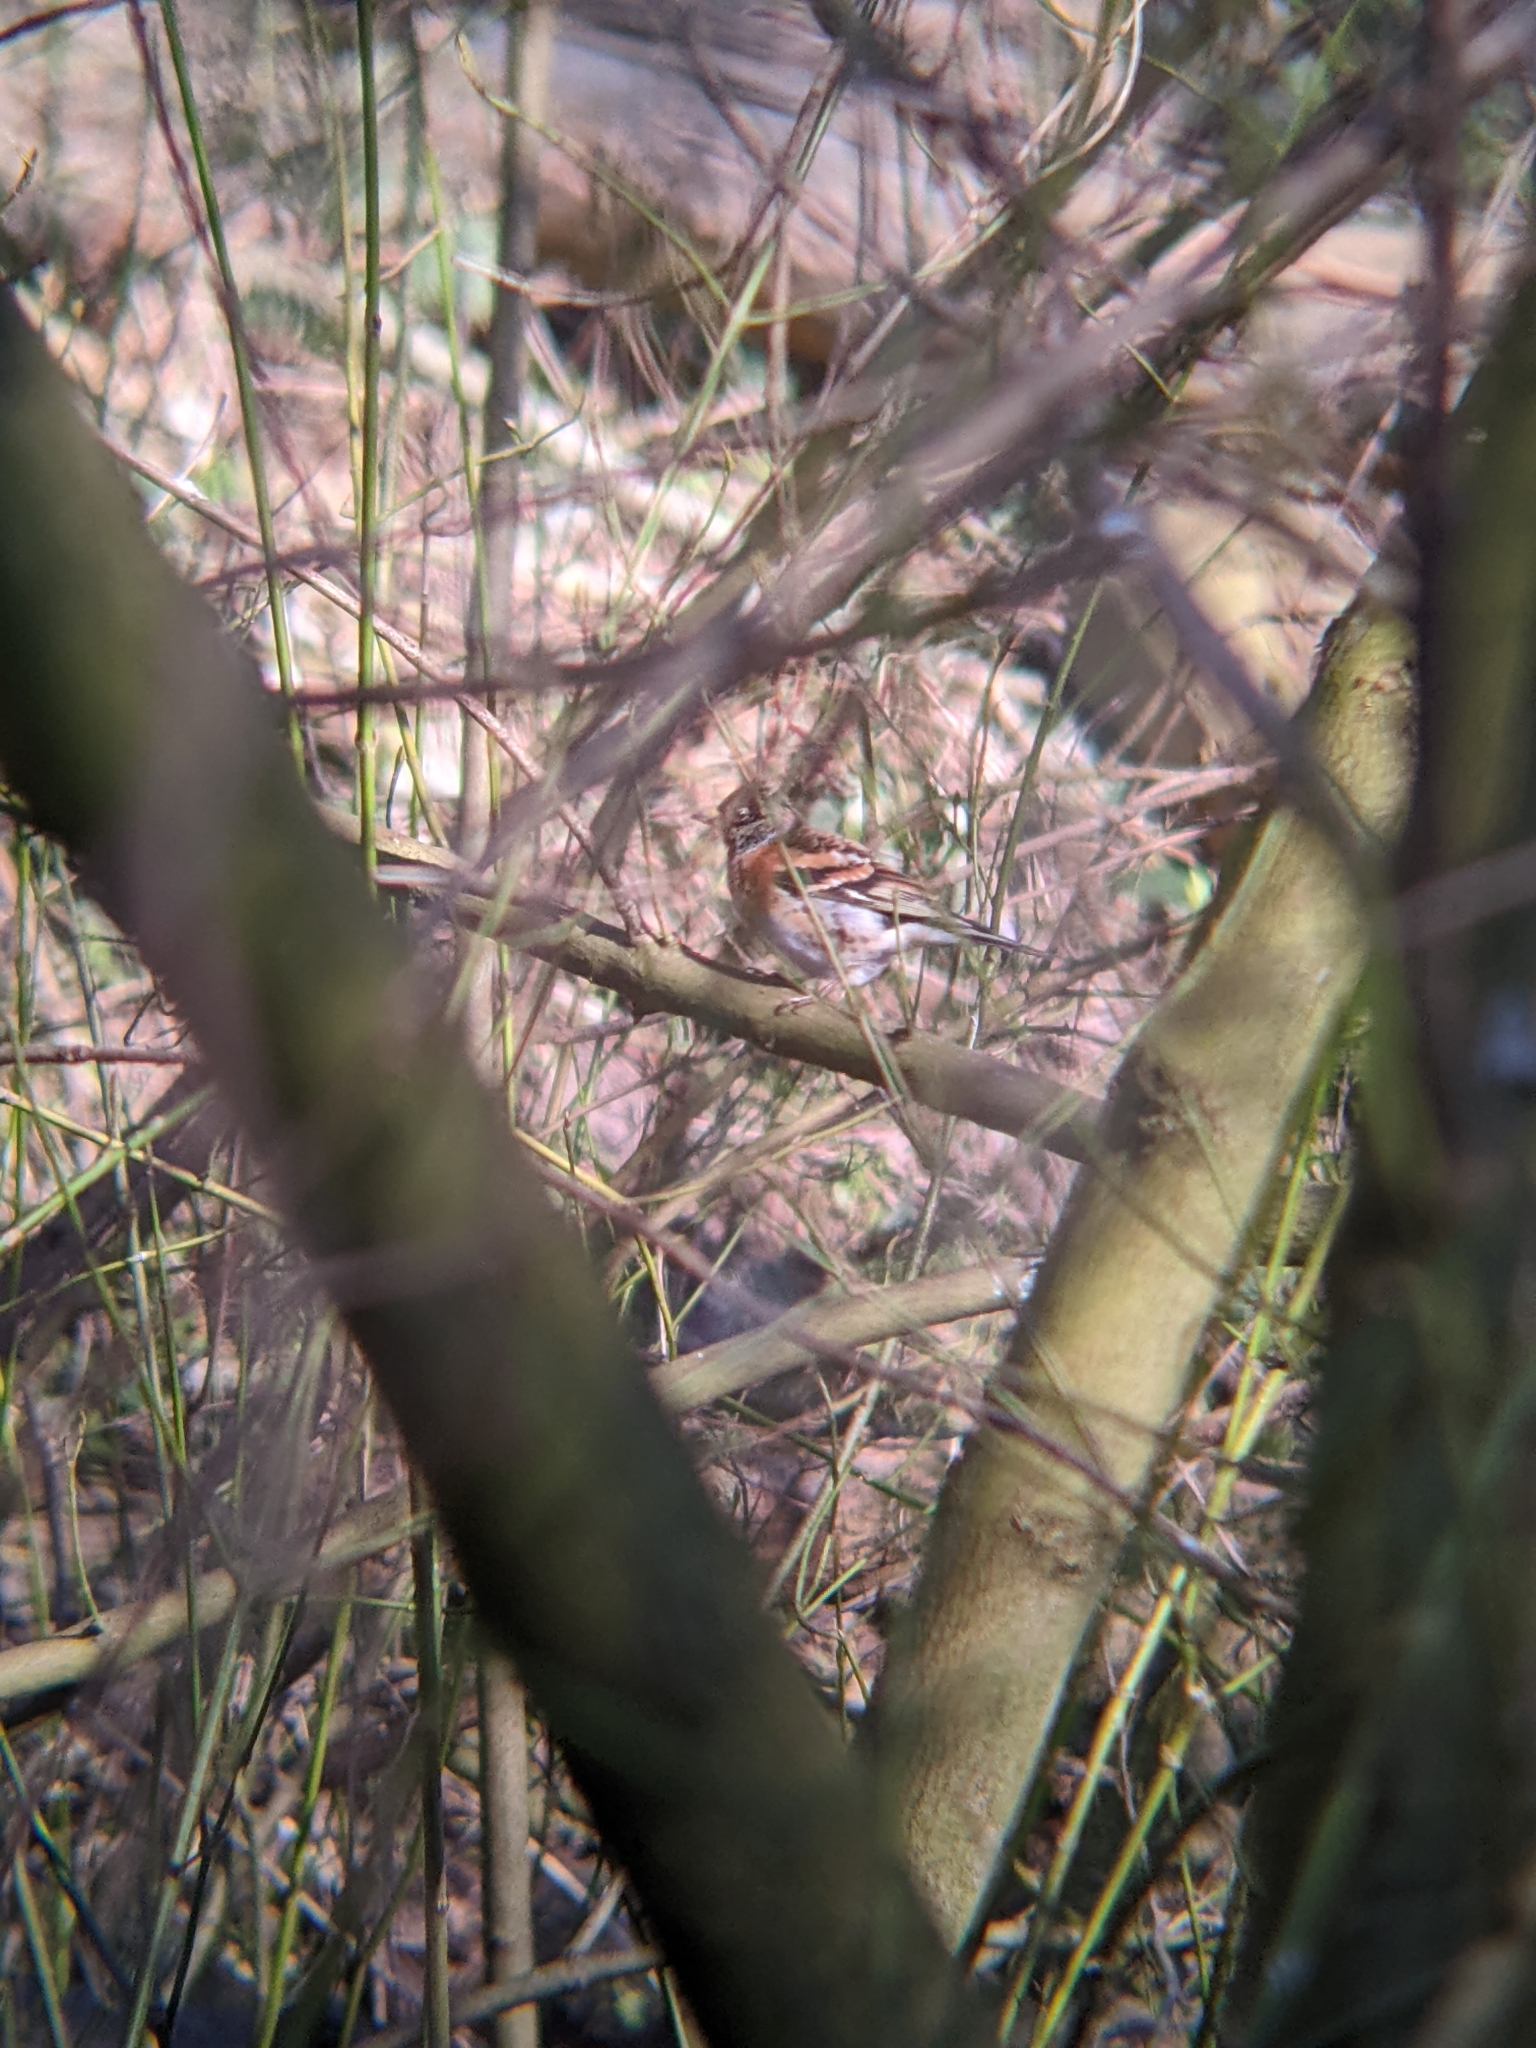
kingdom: Animalia
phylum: Chordata
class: Aves
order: Passeriformes
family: Fringillidae
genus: Fringilla
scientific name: Fringilla montifringilla
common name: Brambling
